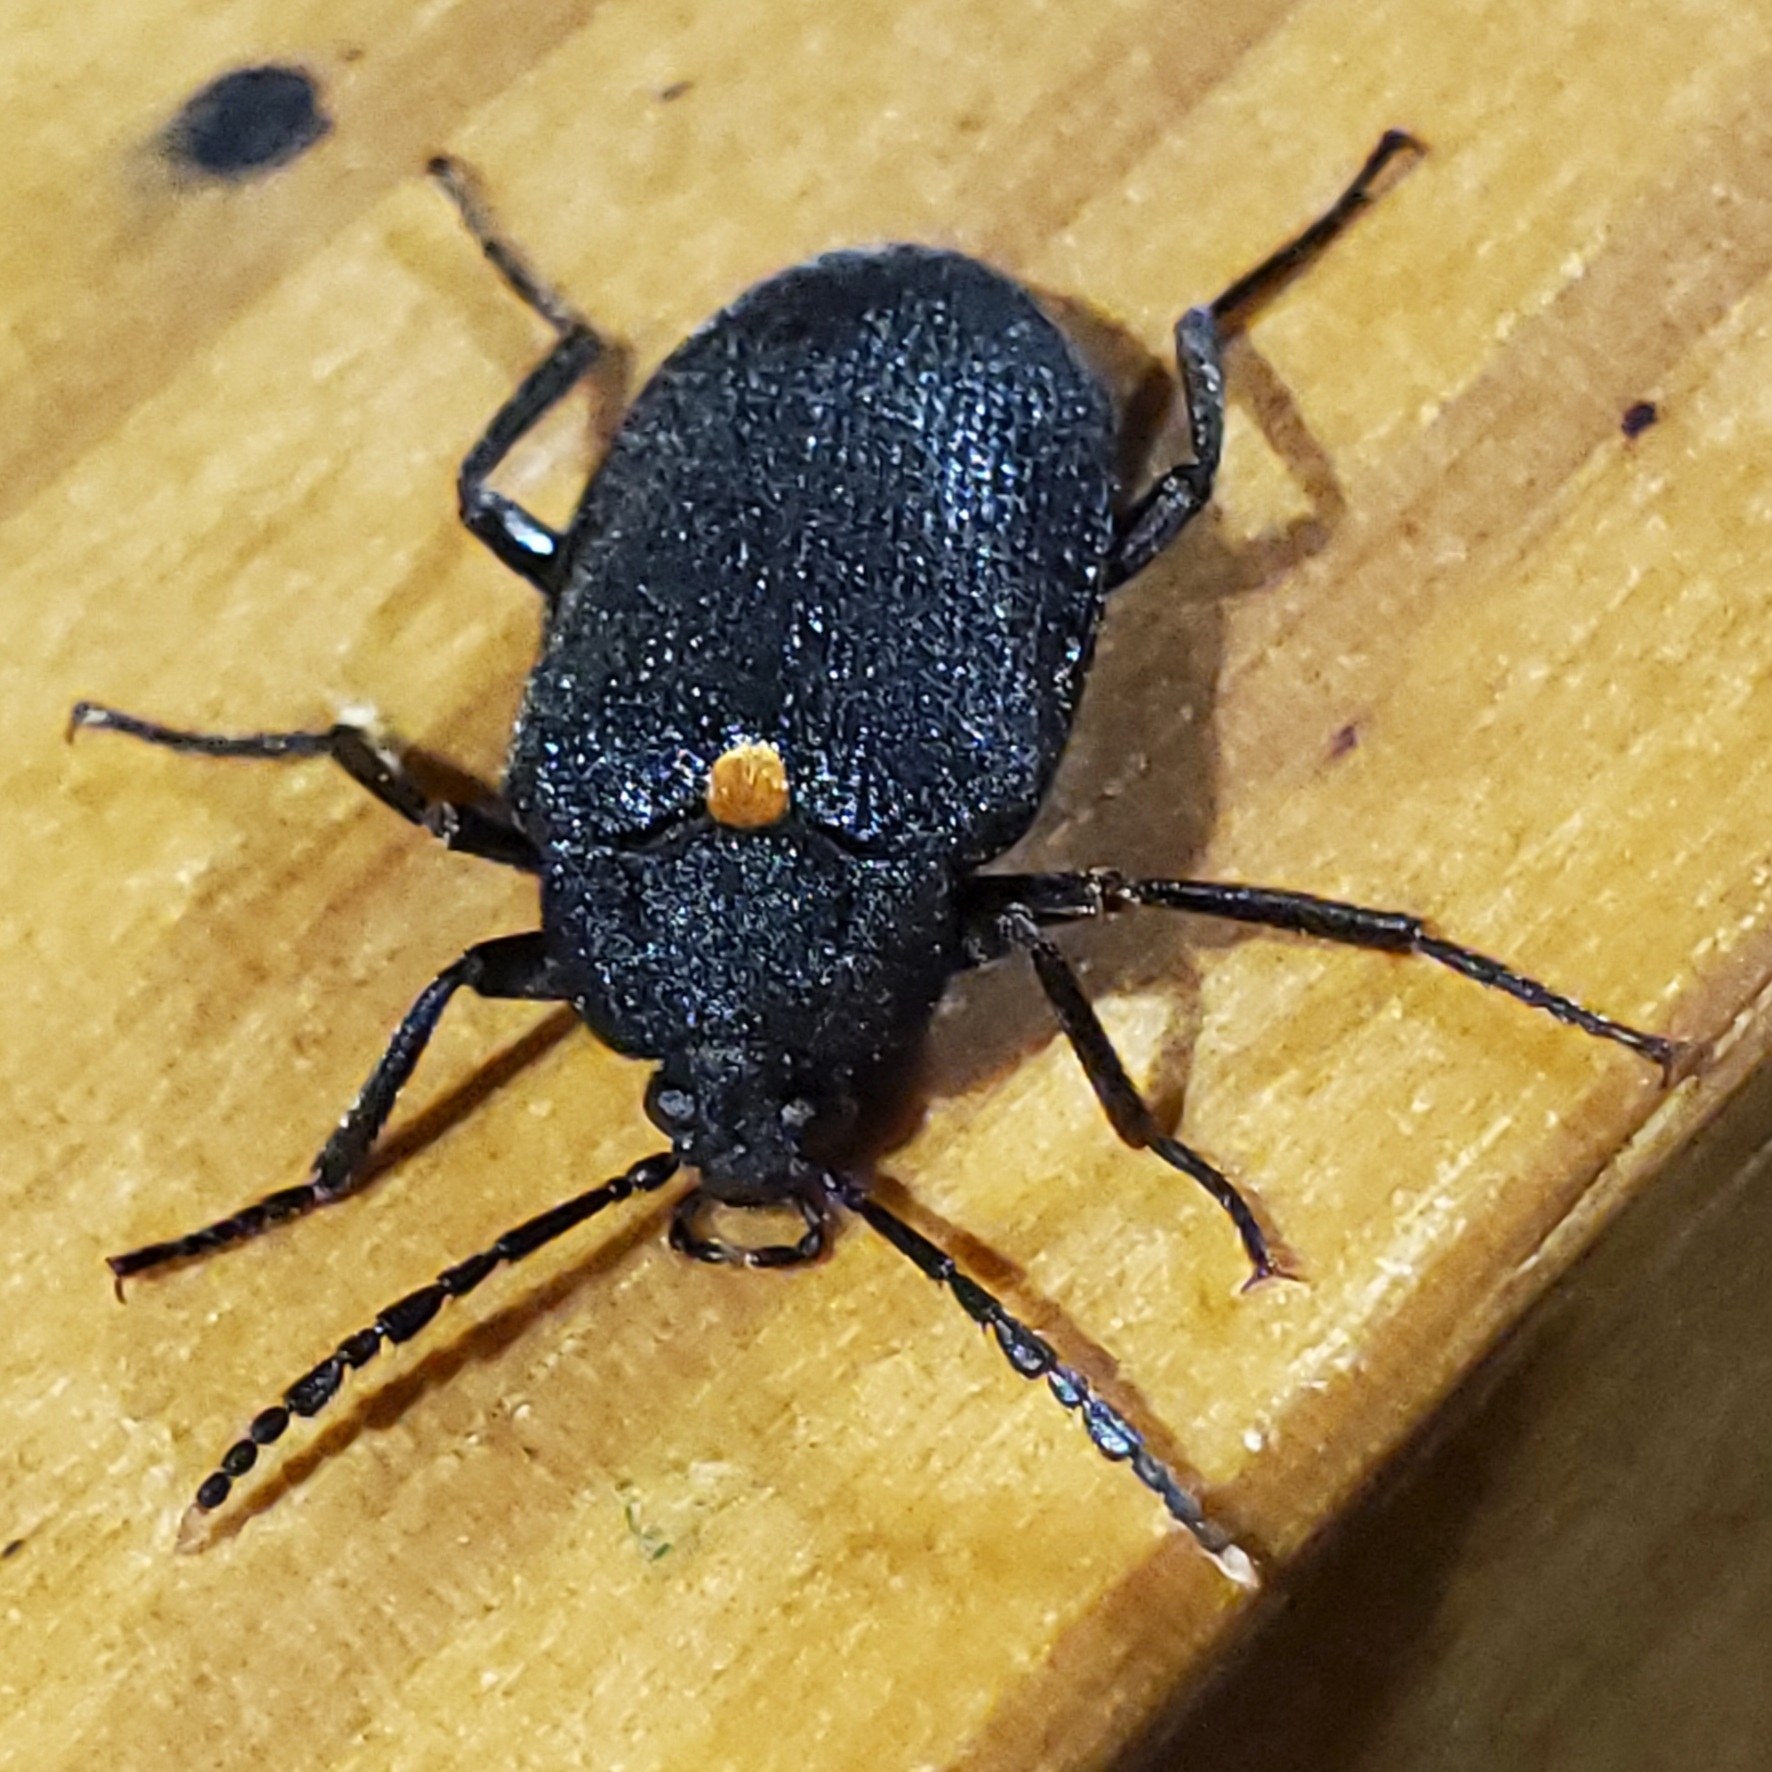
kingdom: Animalia
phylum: Arthropoda
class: Insecta
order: Coleoptera
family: Tetratomidae
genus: Penthe
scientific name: Penthe obliquata
